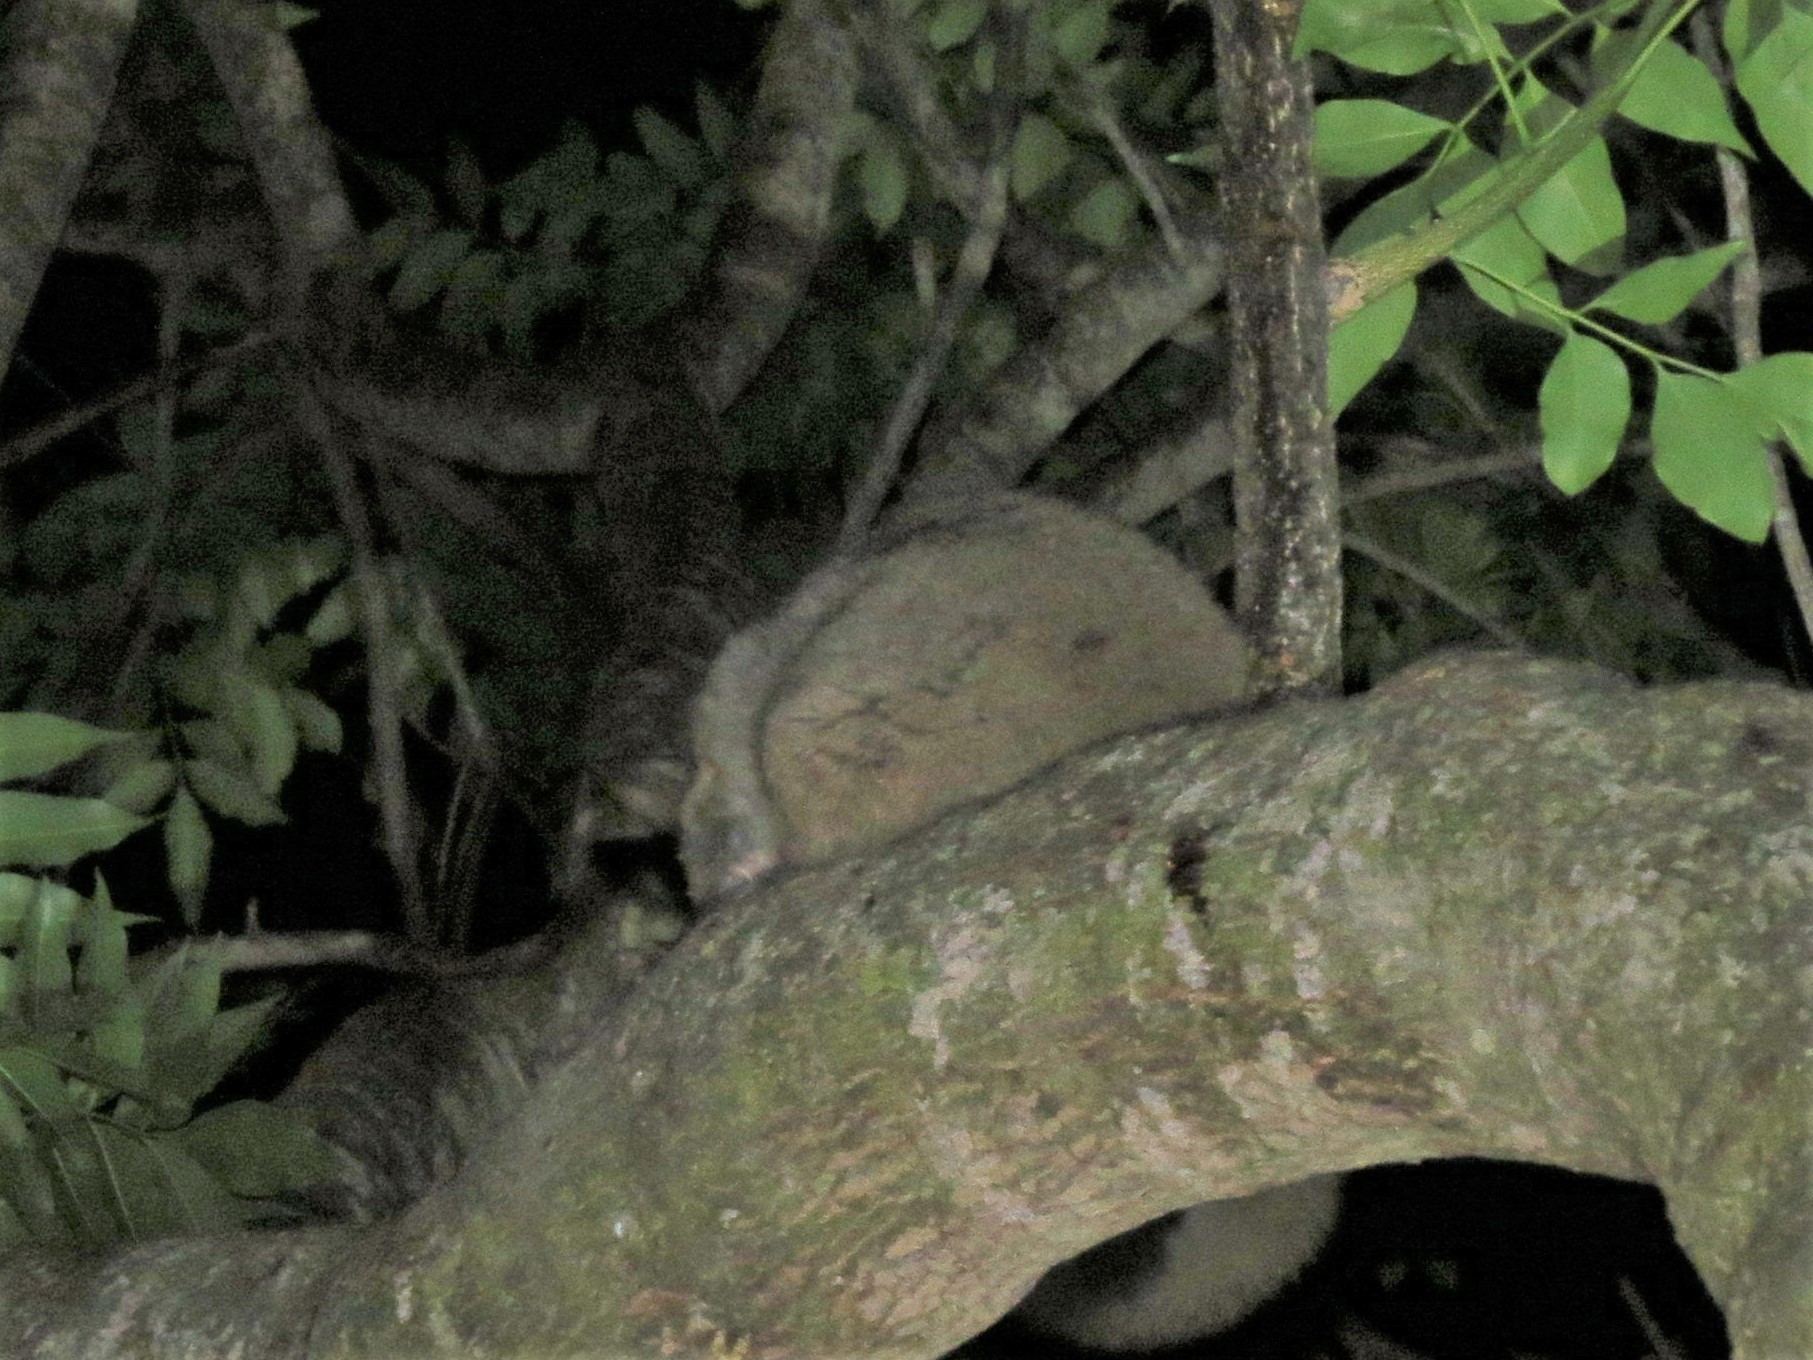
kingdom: Animalia
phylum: Chordata
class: Mammalia
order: Primates
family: Galagidae
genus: Otolemur
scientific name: Otolemur crassicaudatus
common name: Brown greater galago
